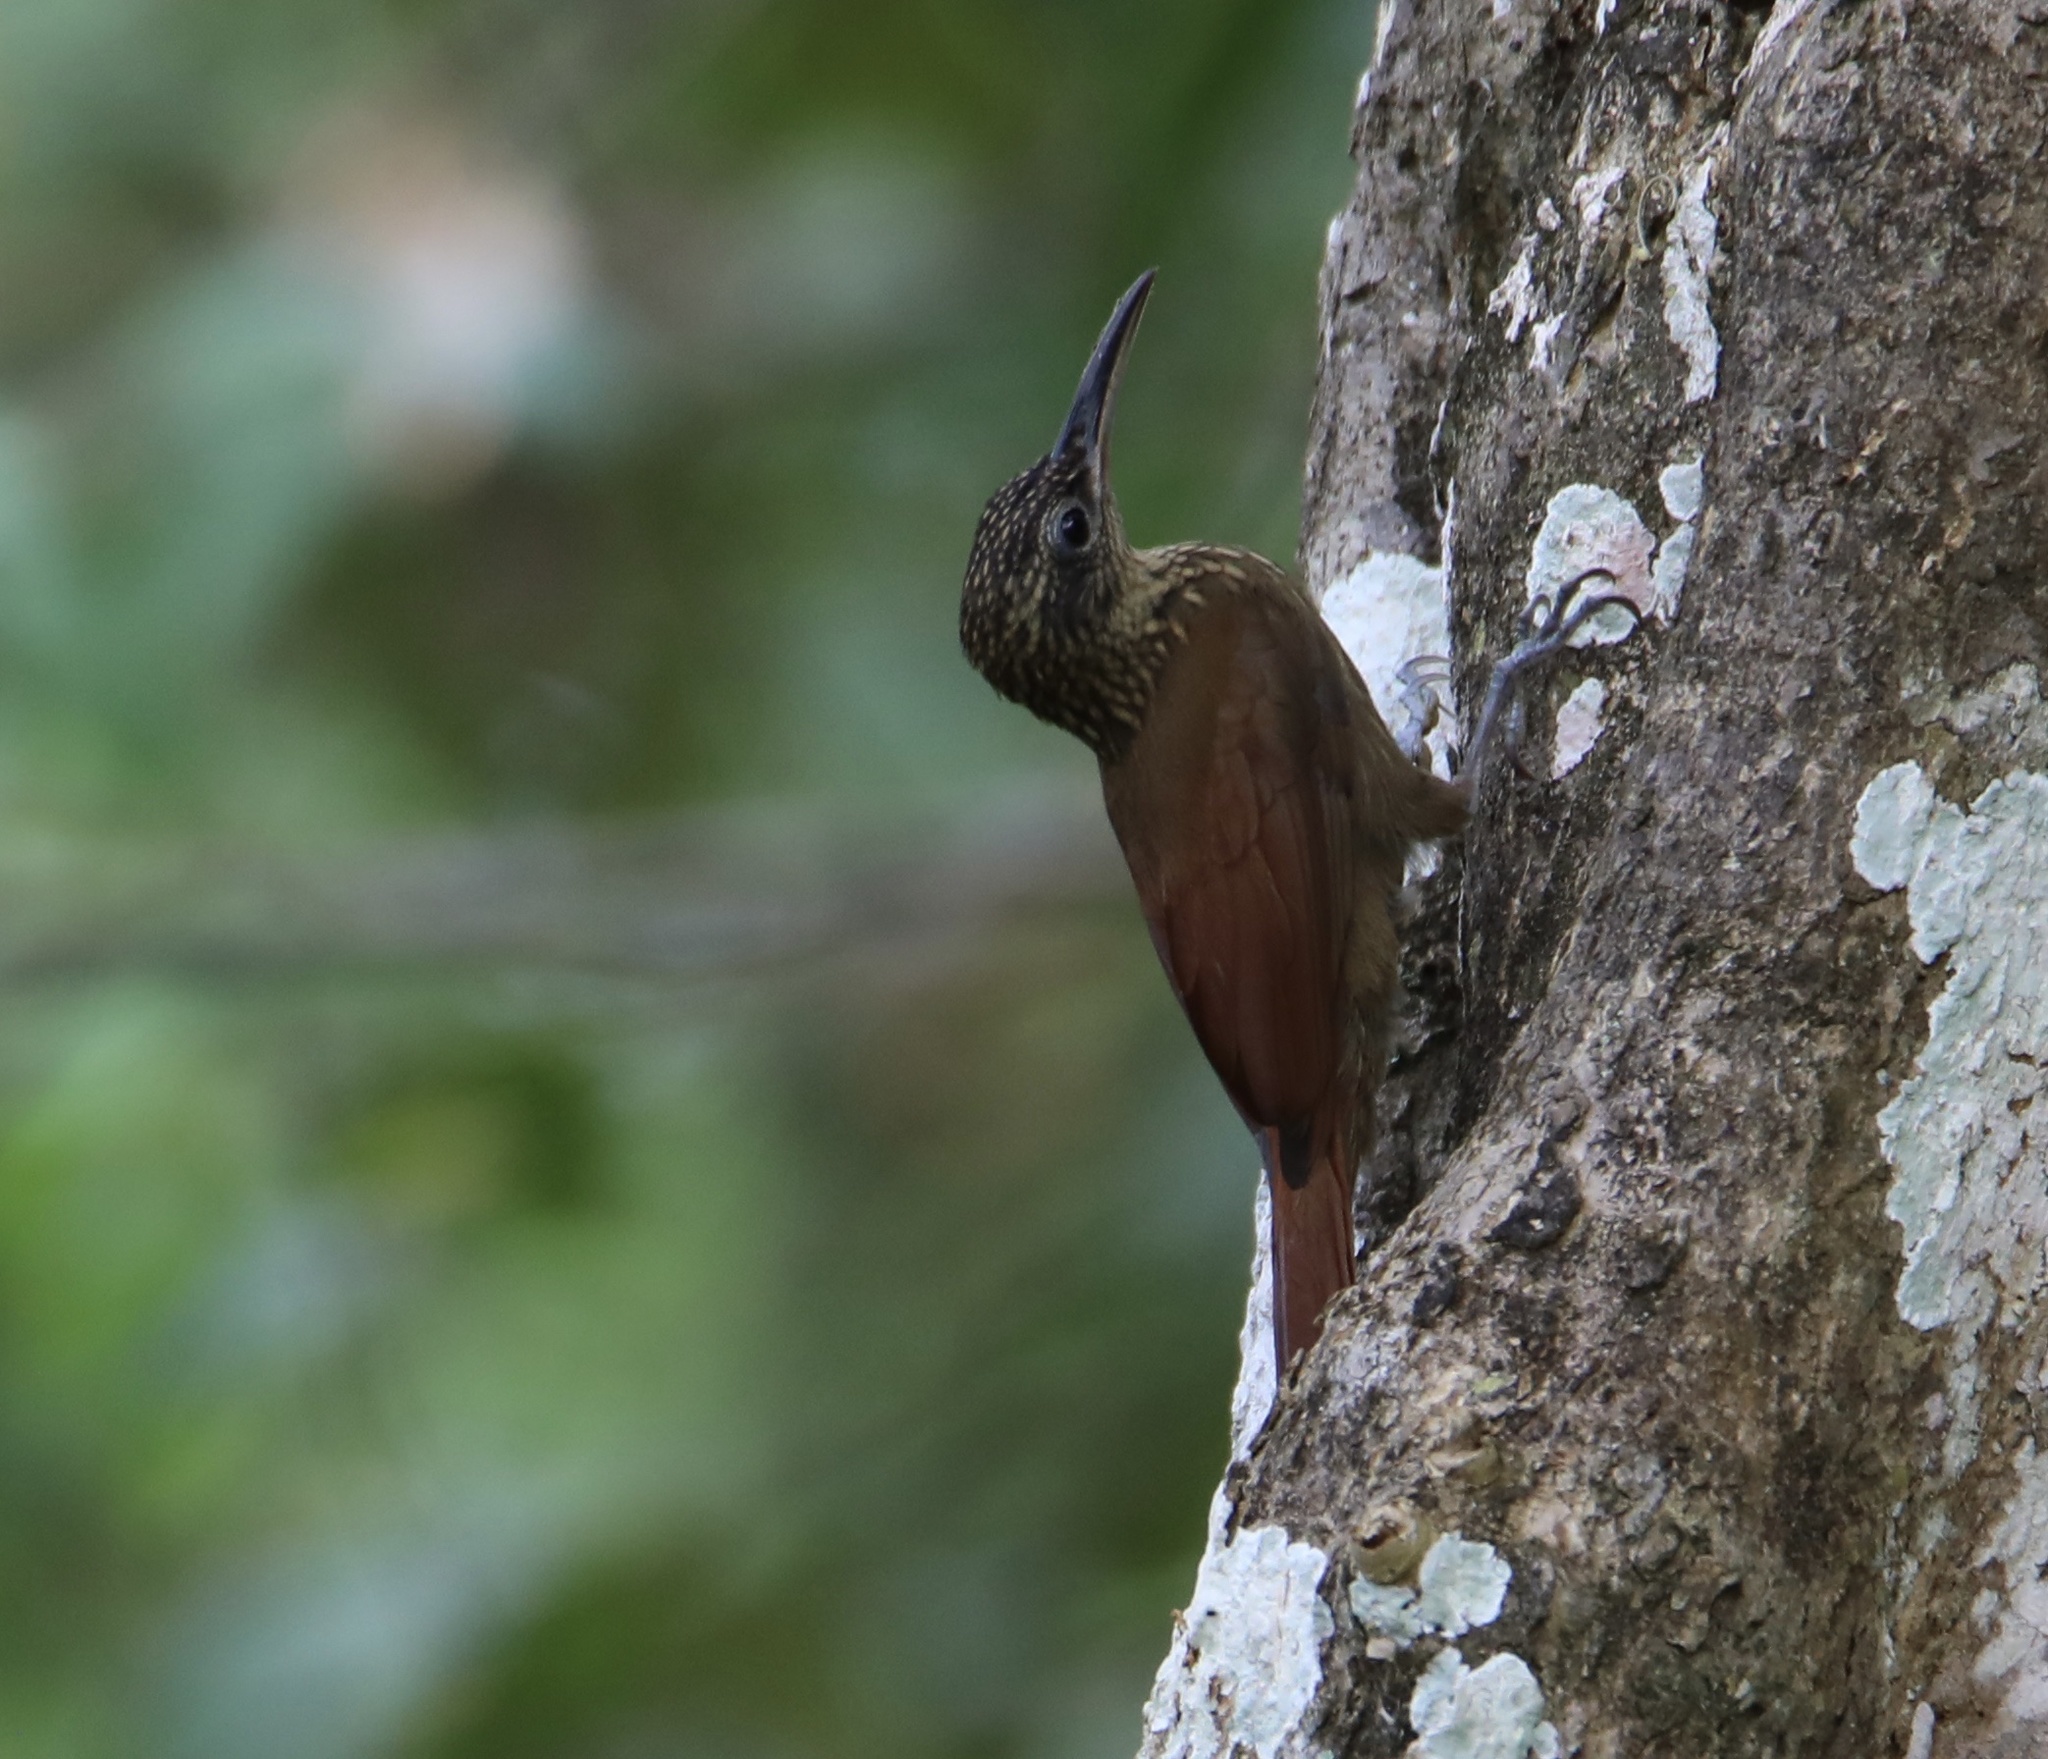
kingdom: Animalia
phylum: Chordata
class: Aves
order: Passeriformes
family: Furnariidae
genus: Xiphorhynchus
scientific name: Xiphorhynchus susurrans
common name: Cocoa woodcreeper
